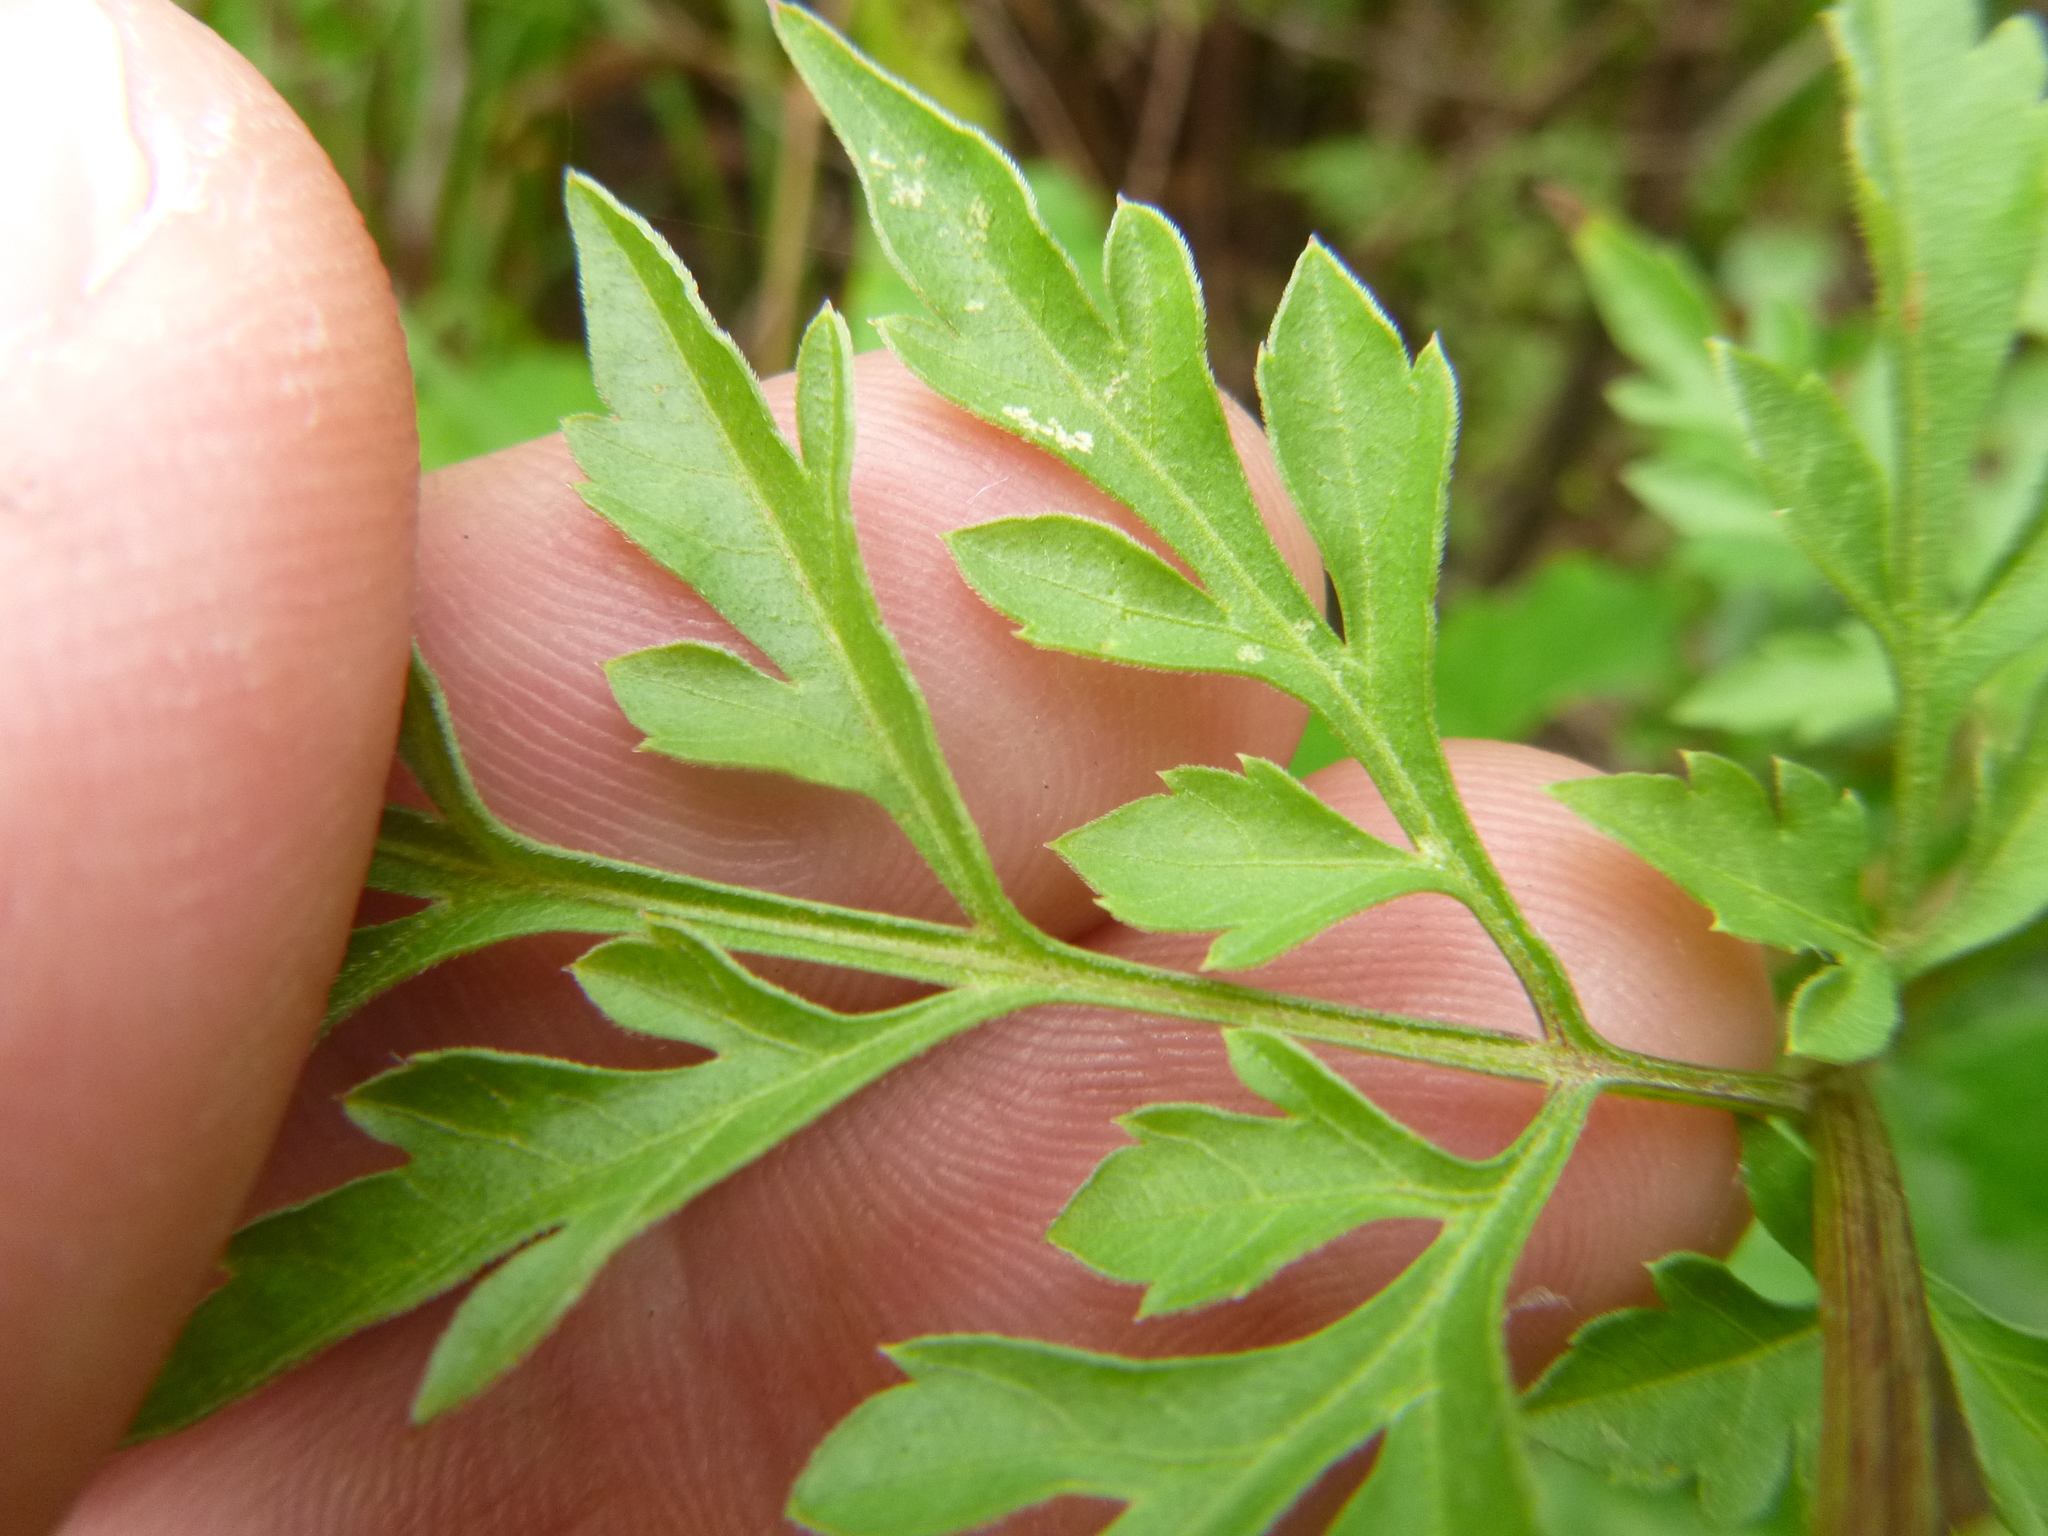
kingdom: Plantae
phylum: Tracheophyta
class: Magnoliopsida
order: Asterales
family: Asteraceae
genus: Bidens
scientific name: Bidens bipinnata
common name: Spanish-needles
